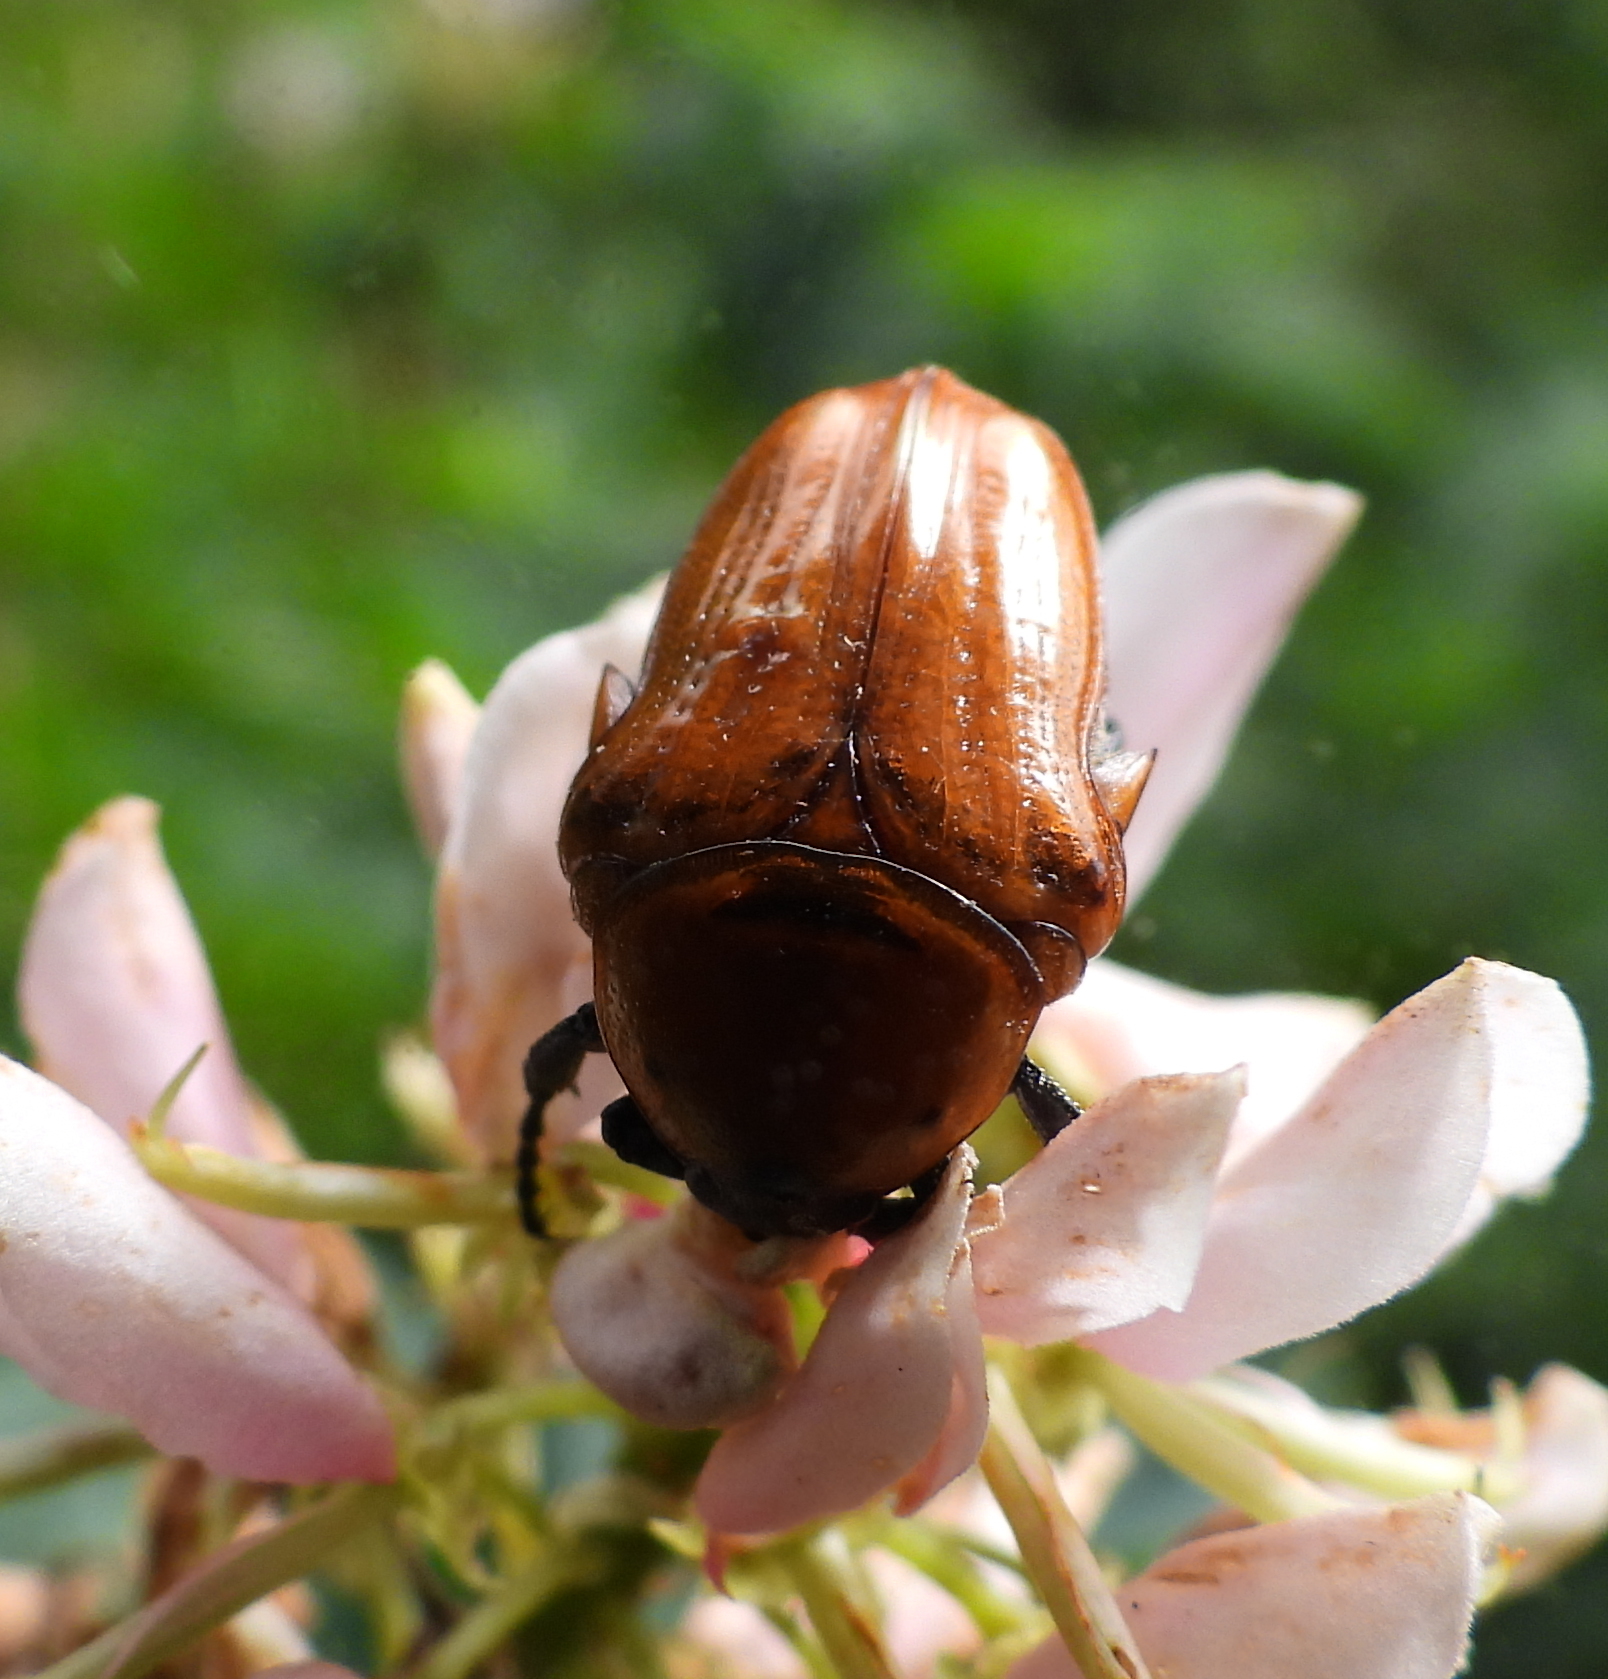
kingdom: Animalia
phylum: Arthropoda
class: Insecta
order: Coleoptera
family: Scarabaeidae
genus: Leucocelis
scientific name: Leucocelis rubra
